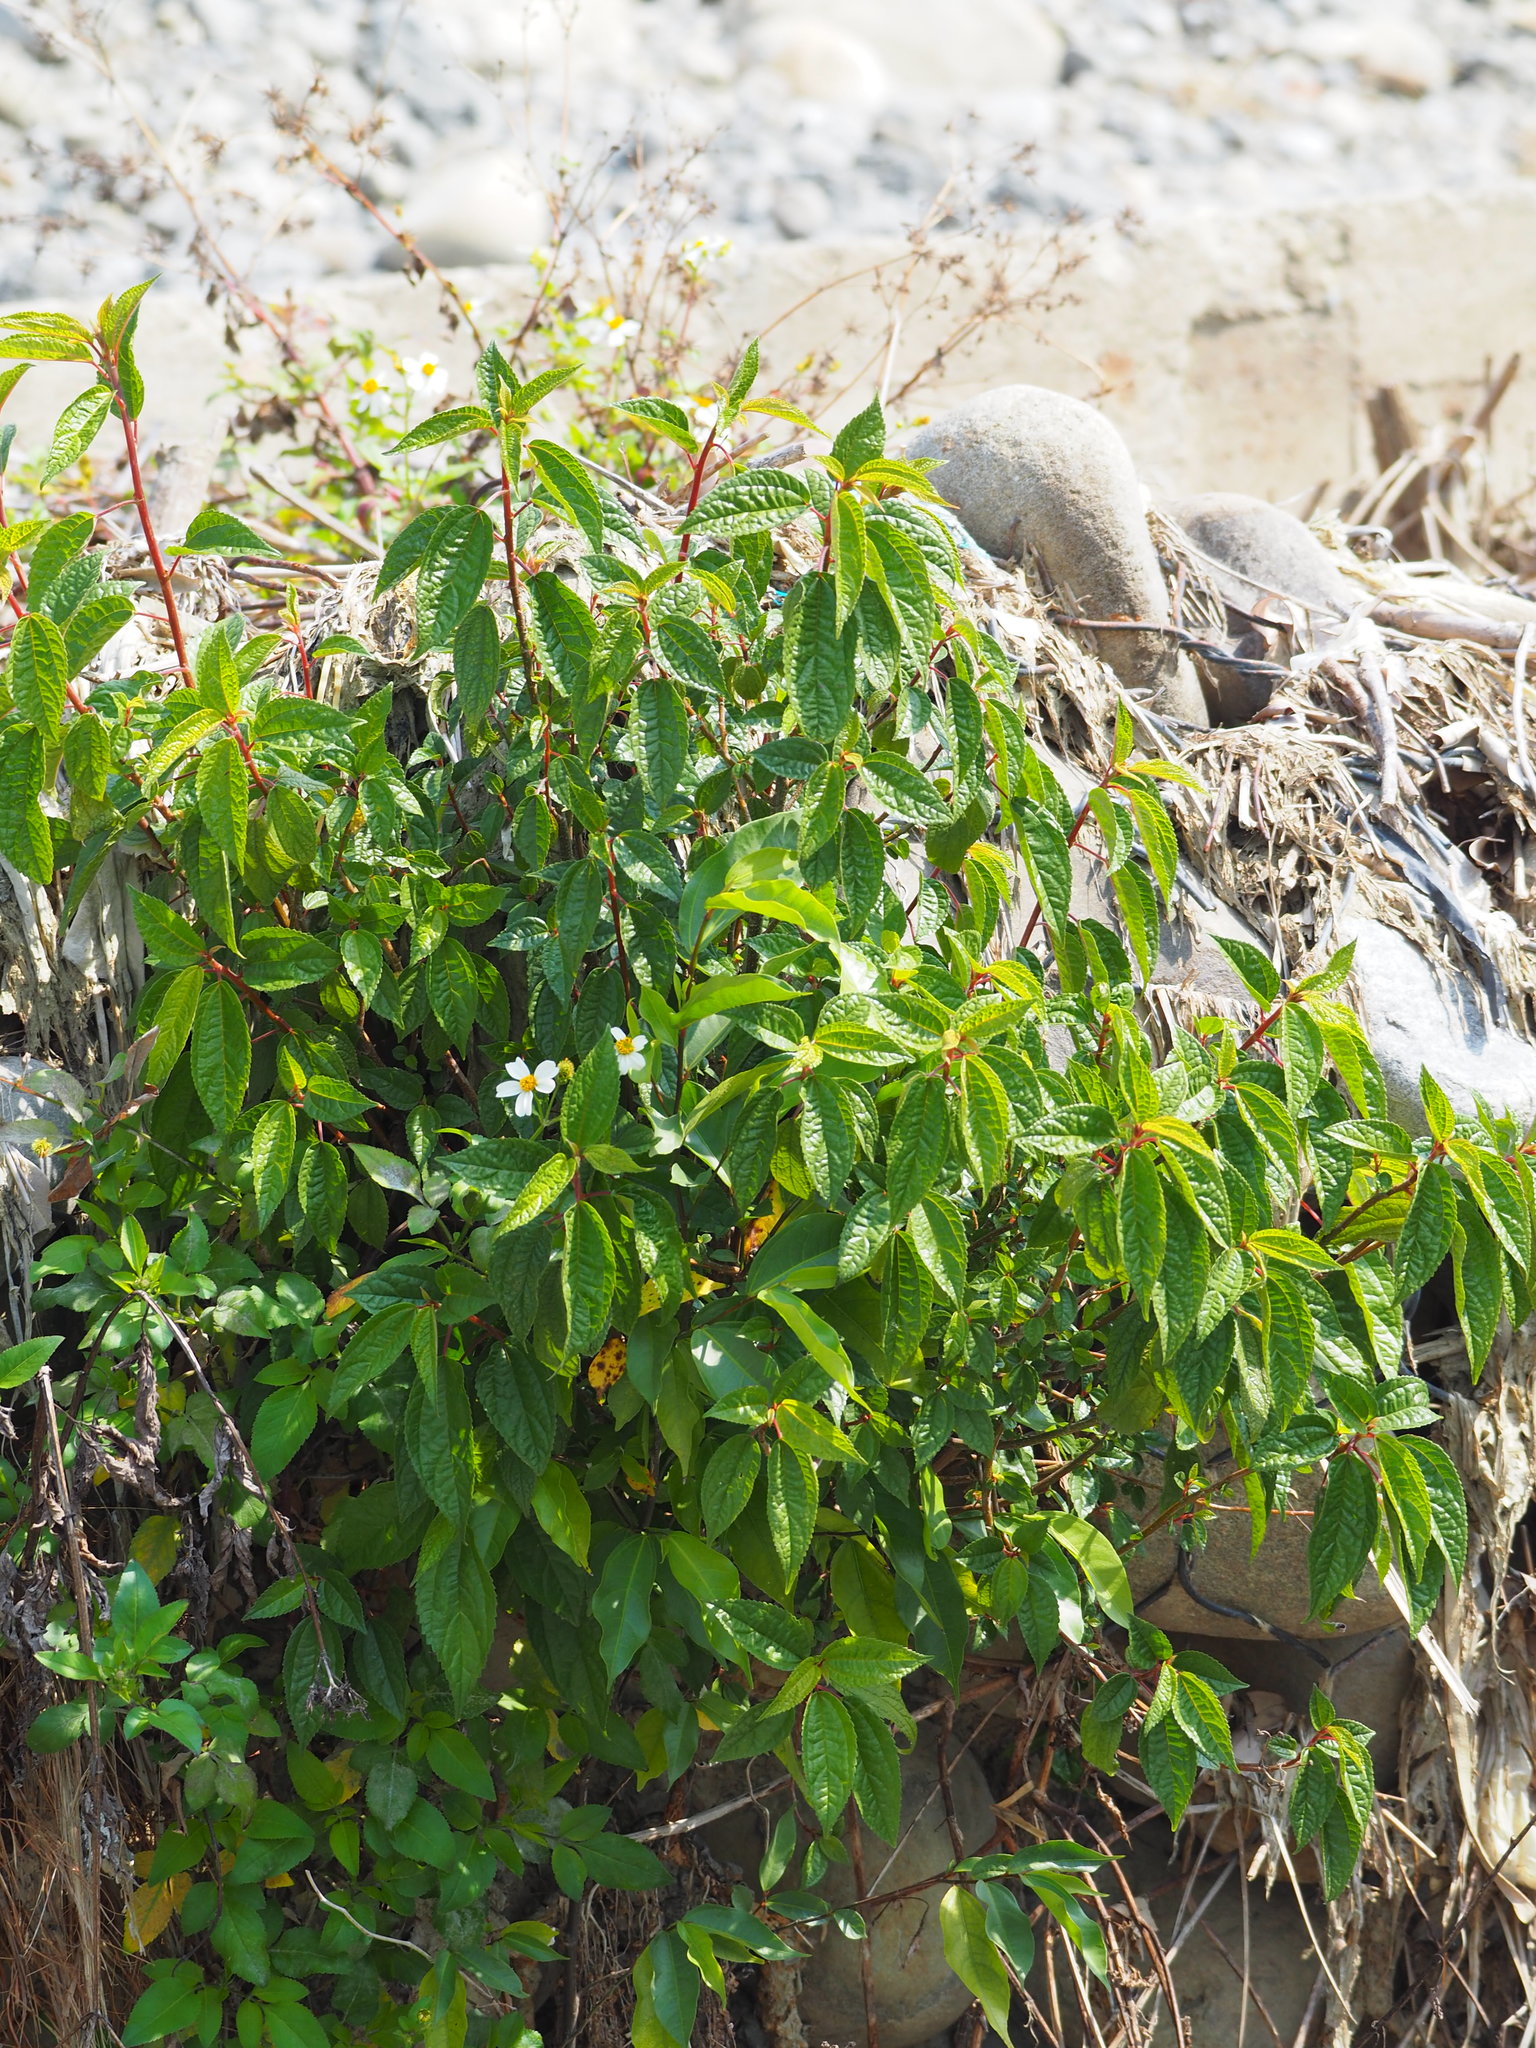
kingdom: Plantae
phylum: Tracheophyta
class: Magnoliopsida
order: Rosales
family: Urticaceae
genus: Oreocnide
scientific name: Oreocnide pedunculata
